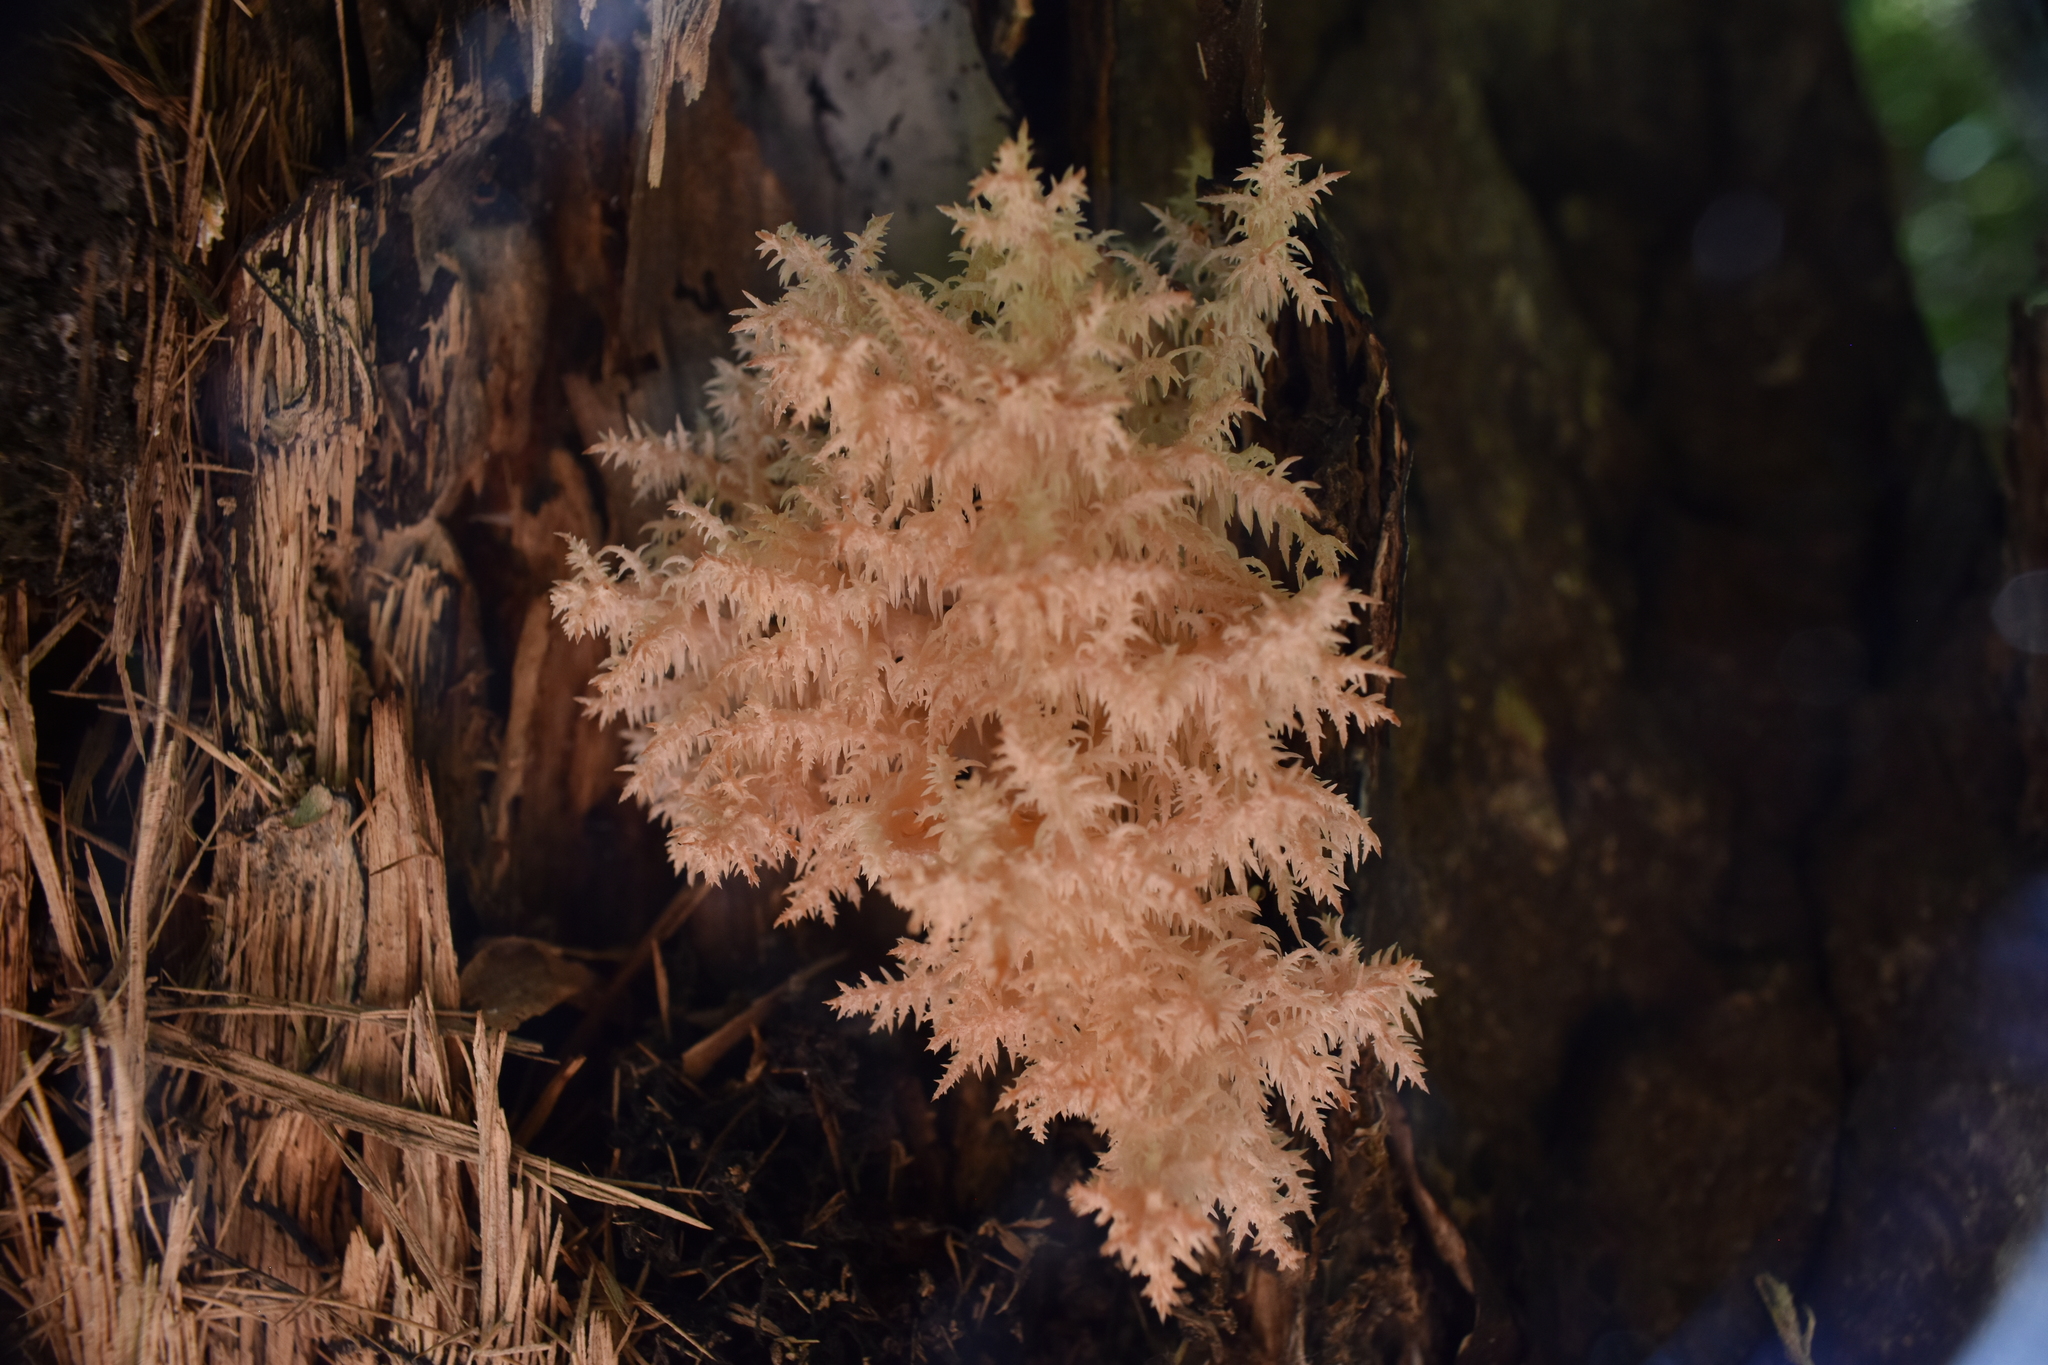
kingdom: Fungi
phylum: Basidiomycota
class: Agaricomycetes
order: Russulales
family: Hericiaceae
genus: Hericium
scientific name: Hericium novae-zealandiae
